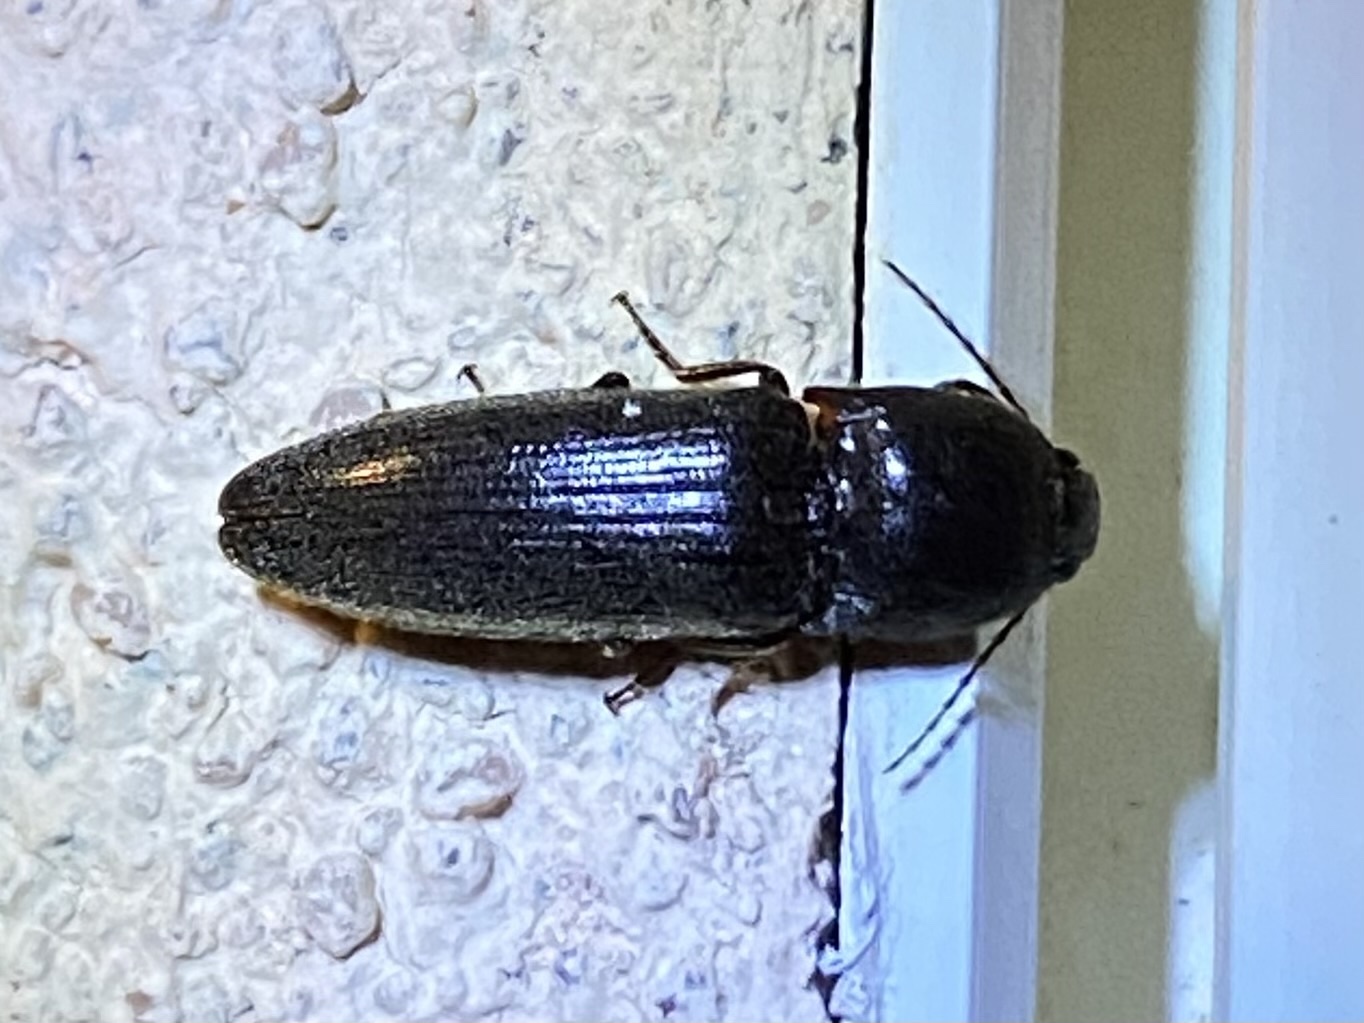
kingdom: Animalia
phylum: Arthropoda
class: Insecta
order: Coleoptera
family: Elateridae
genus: Melanotus
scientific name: Melanotus
